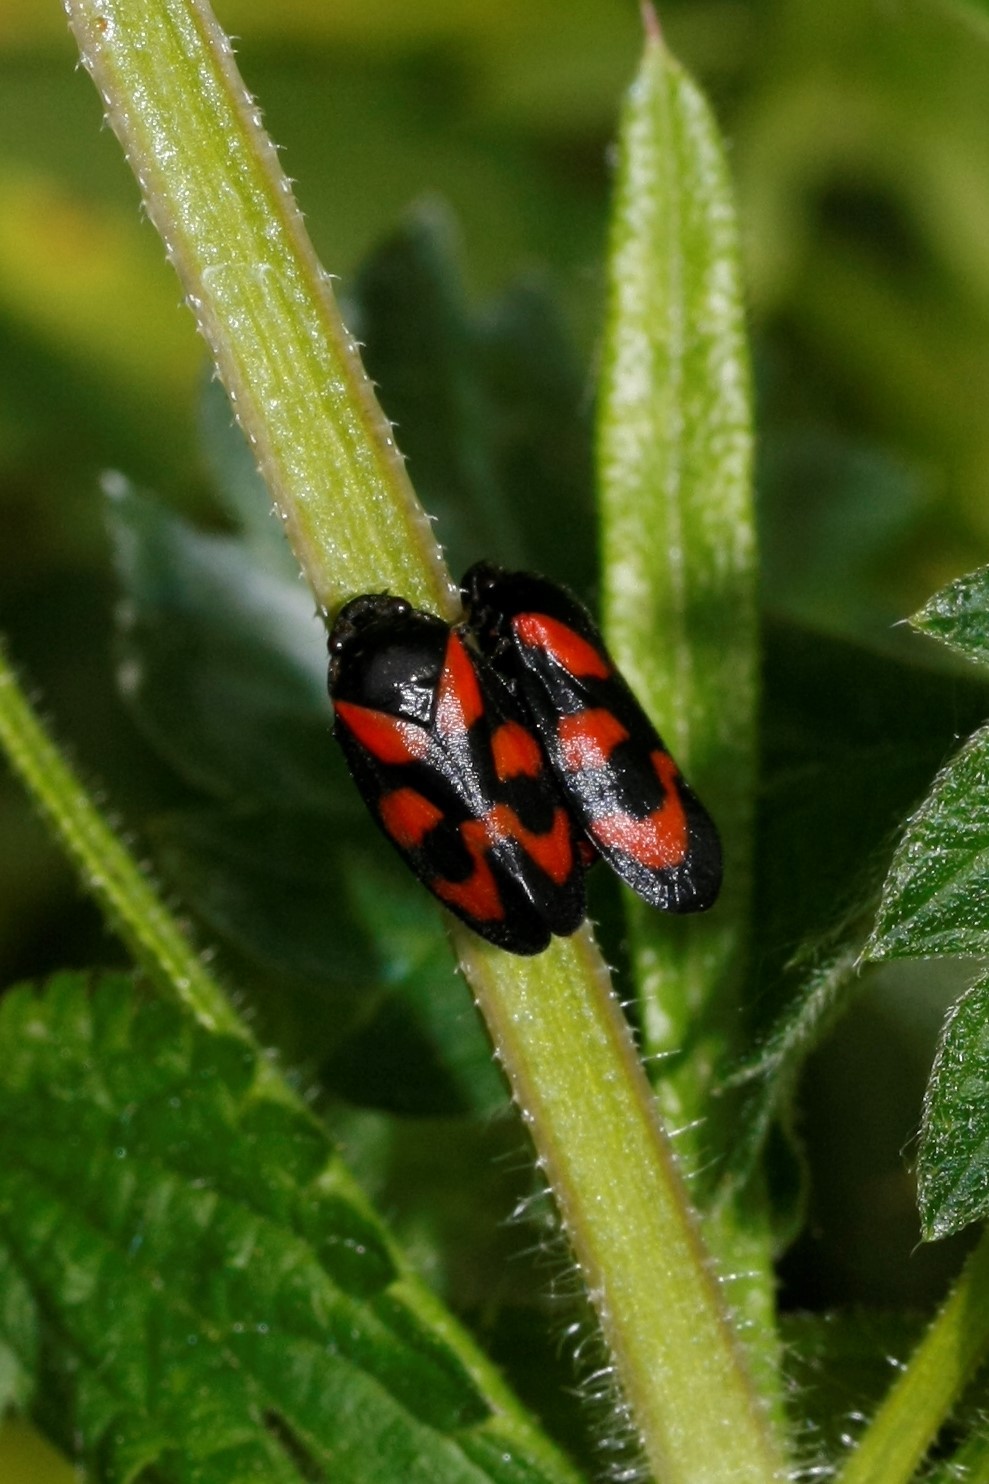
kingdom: Animalia
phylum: Arthropoda
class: Insecta
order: Hemiptera
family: Cercopidae
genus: Cercopis
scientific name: Cercopis vulnerata
